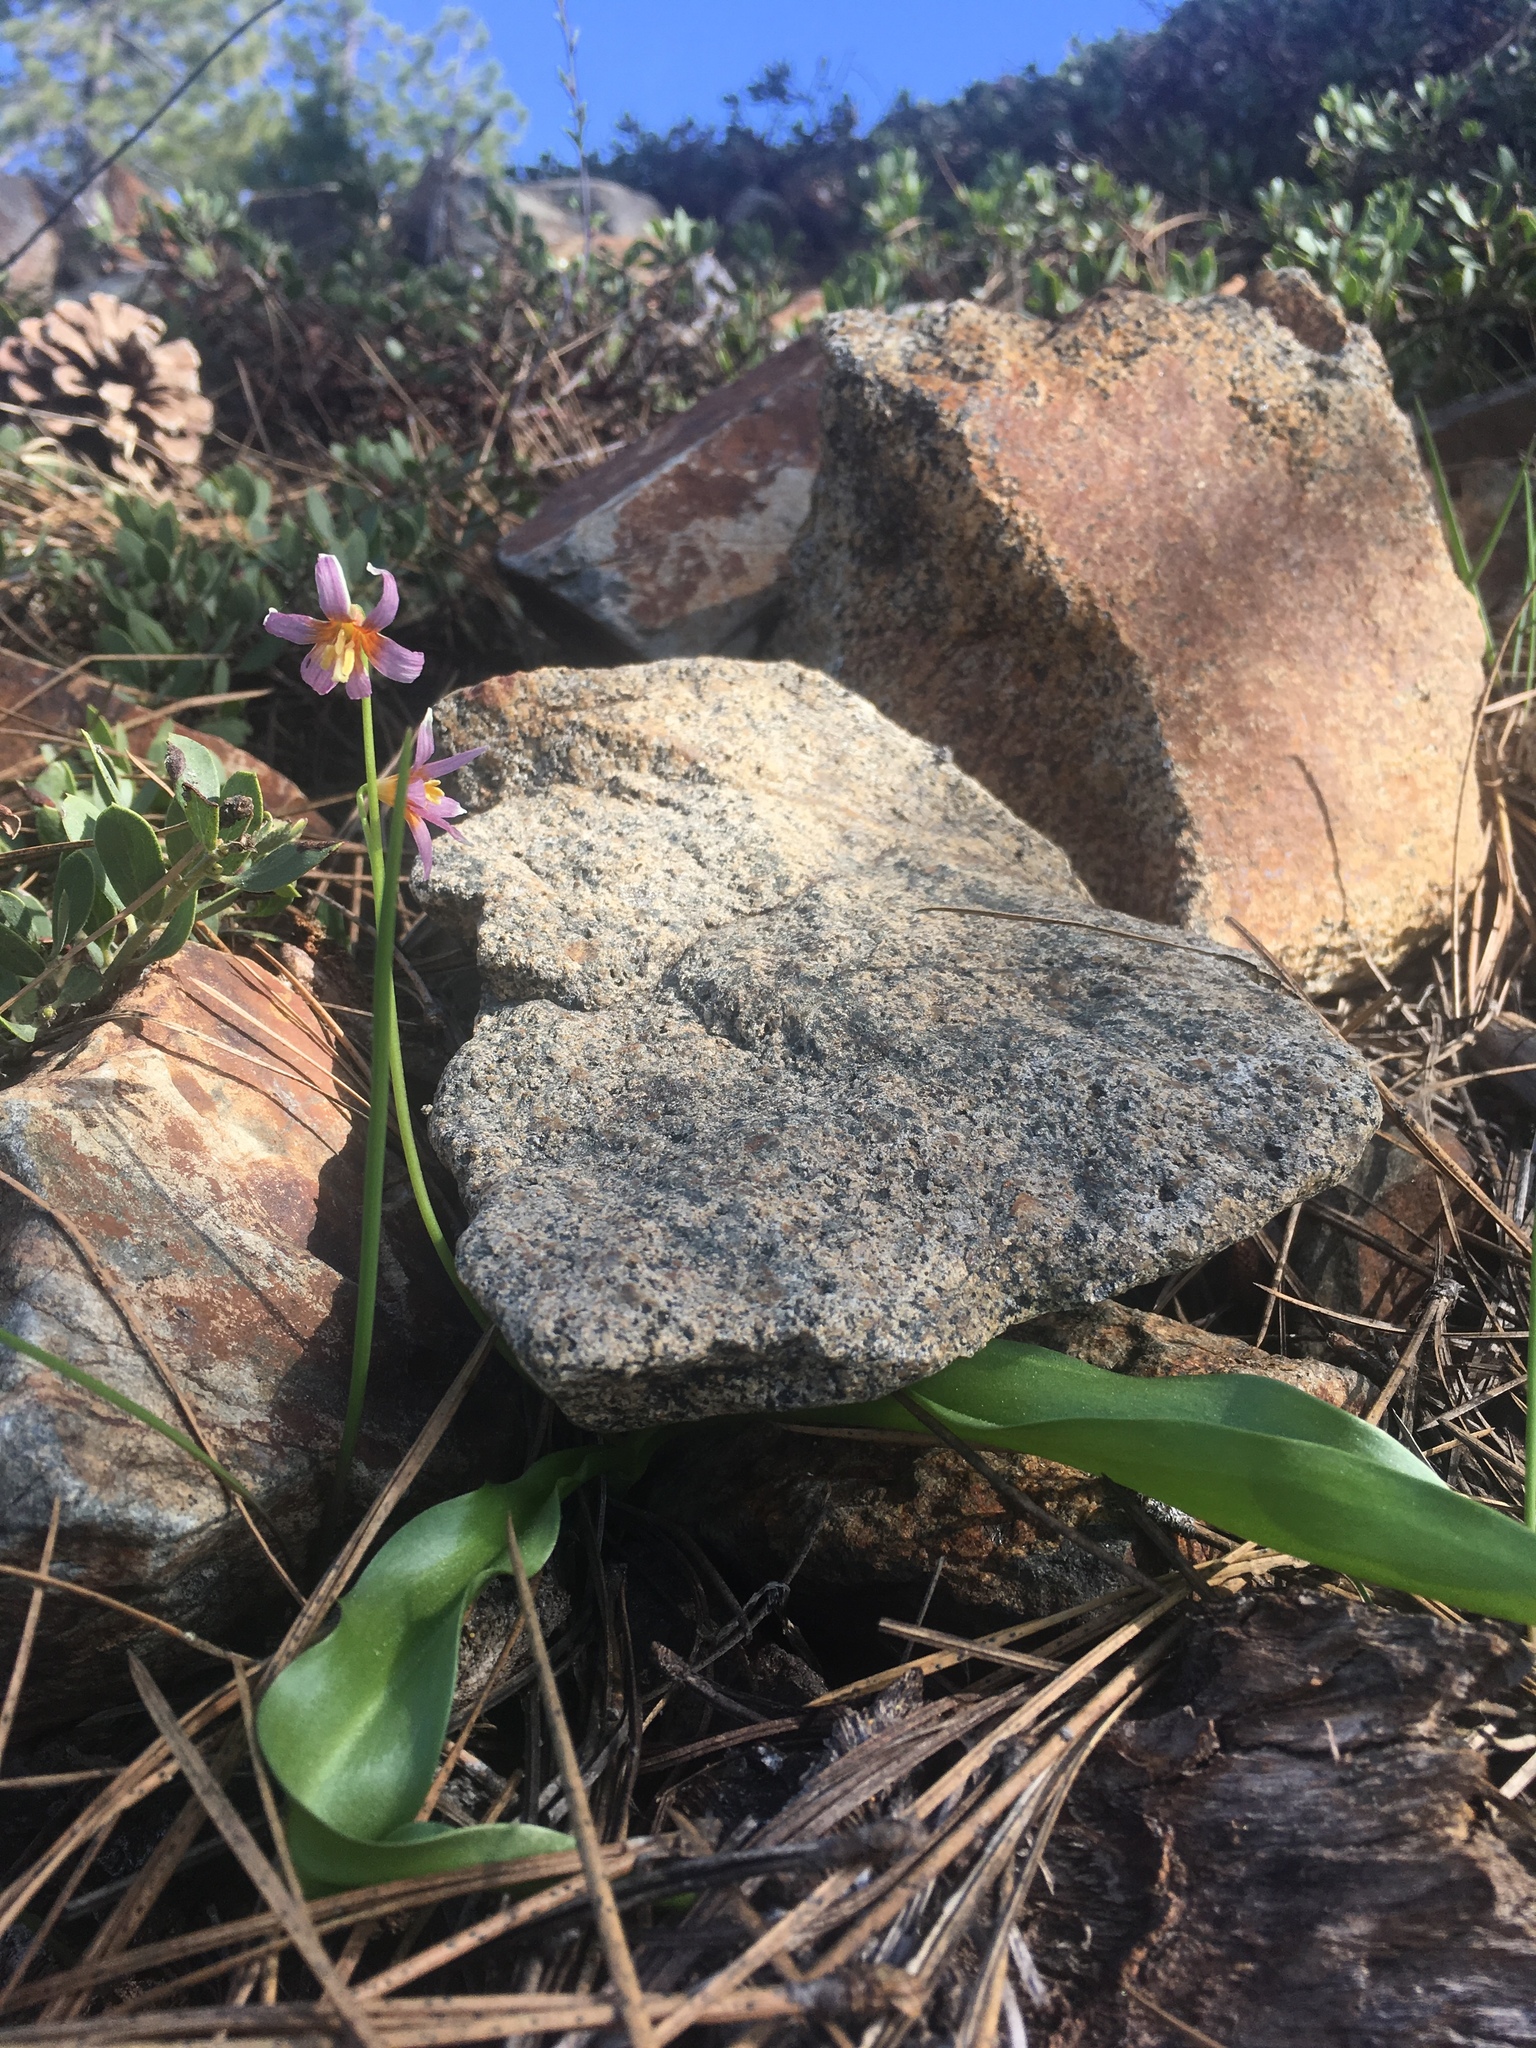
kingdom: Plantae
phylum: Tracheophyta
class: Liliopsida
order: Liliales
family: Liliaceae
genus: Erythronium
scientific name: Erythronium purpurascens
